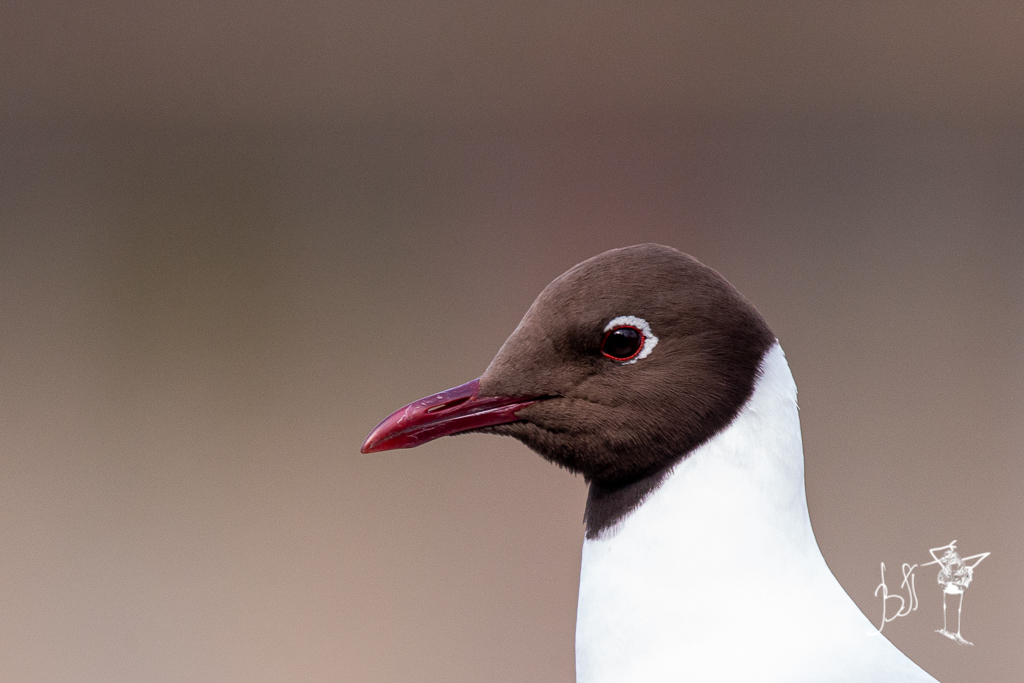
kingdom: Animalia
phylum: Chordata
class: Aves
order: Charadriiformes
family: Laridae
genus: Chroicocephalus
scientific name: Chroicocephalus ridibundus
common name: Black-headed gull
